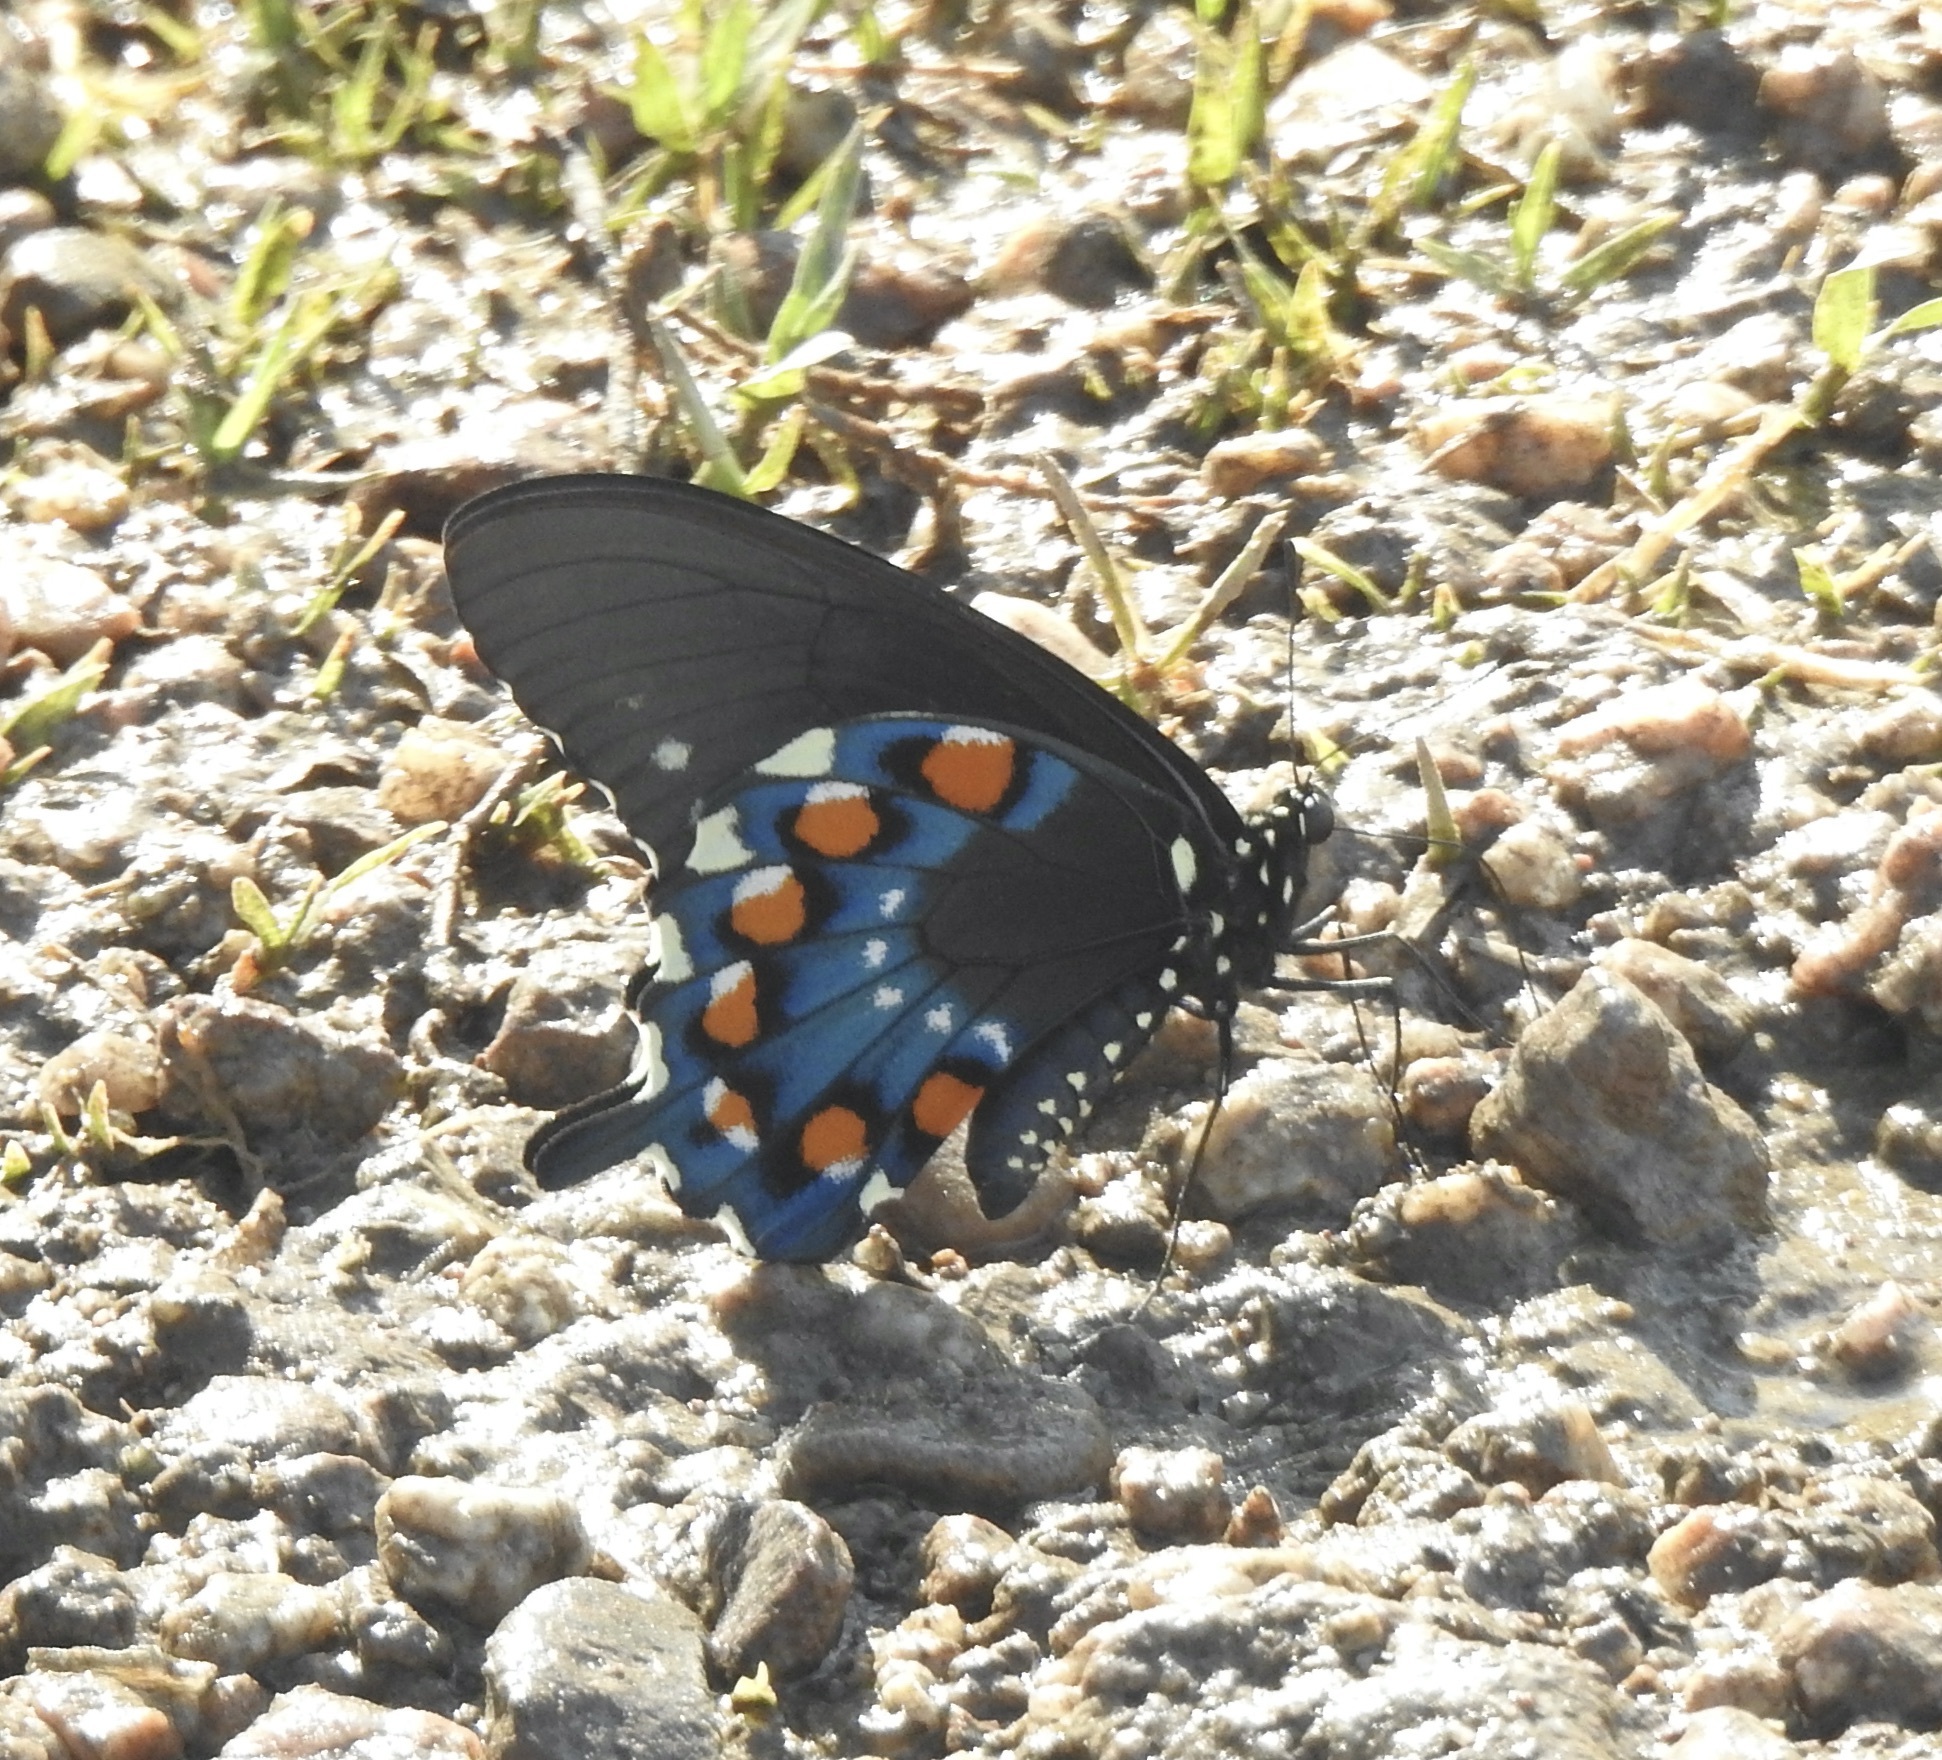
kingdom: Animalia
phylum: Arthropoda
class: Insecta
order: Lepidoptera
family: Papilionidae
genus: Battus
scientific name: Battus philenor
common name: Pipevine swallowtail
